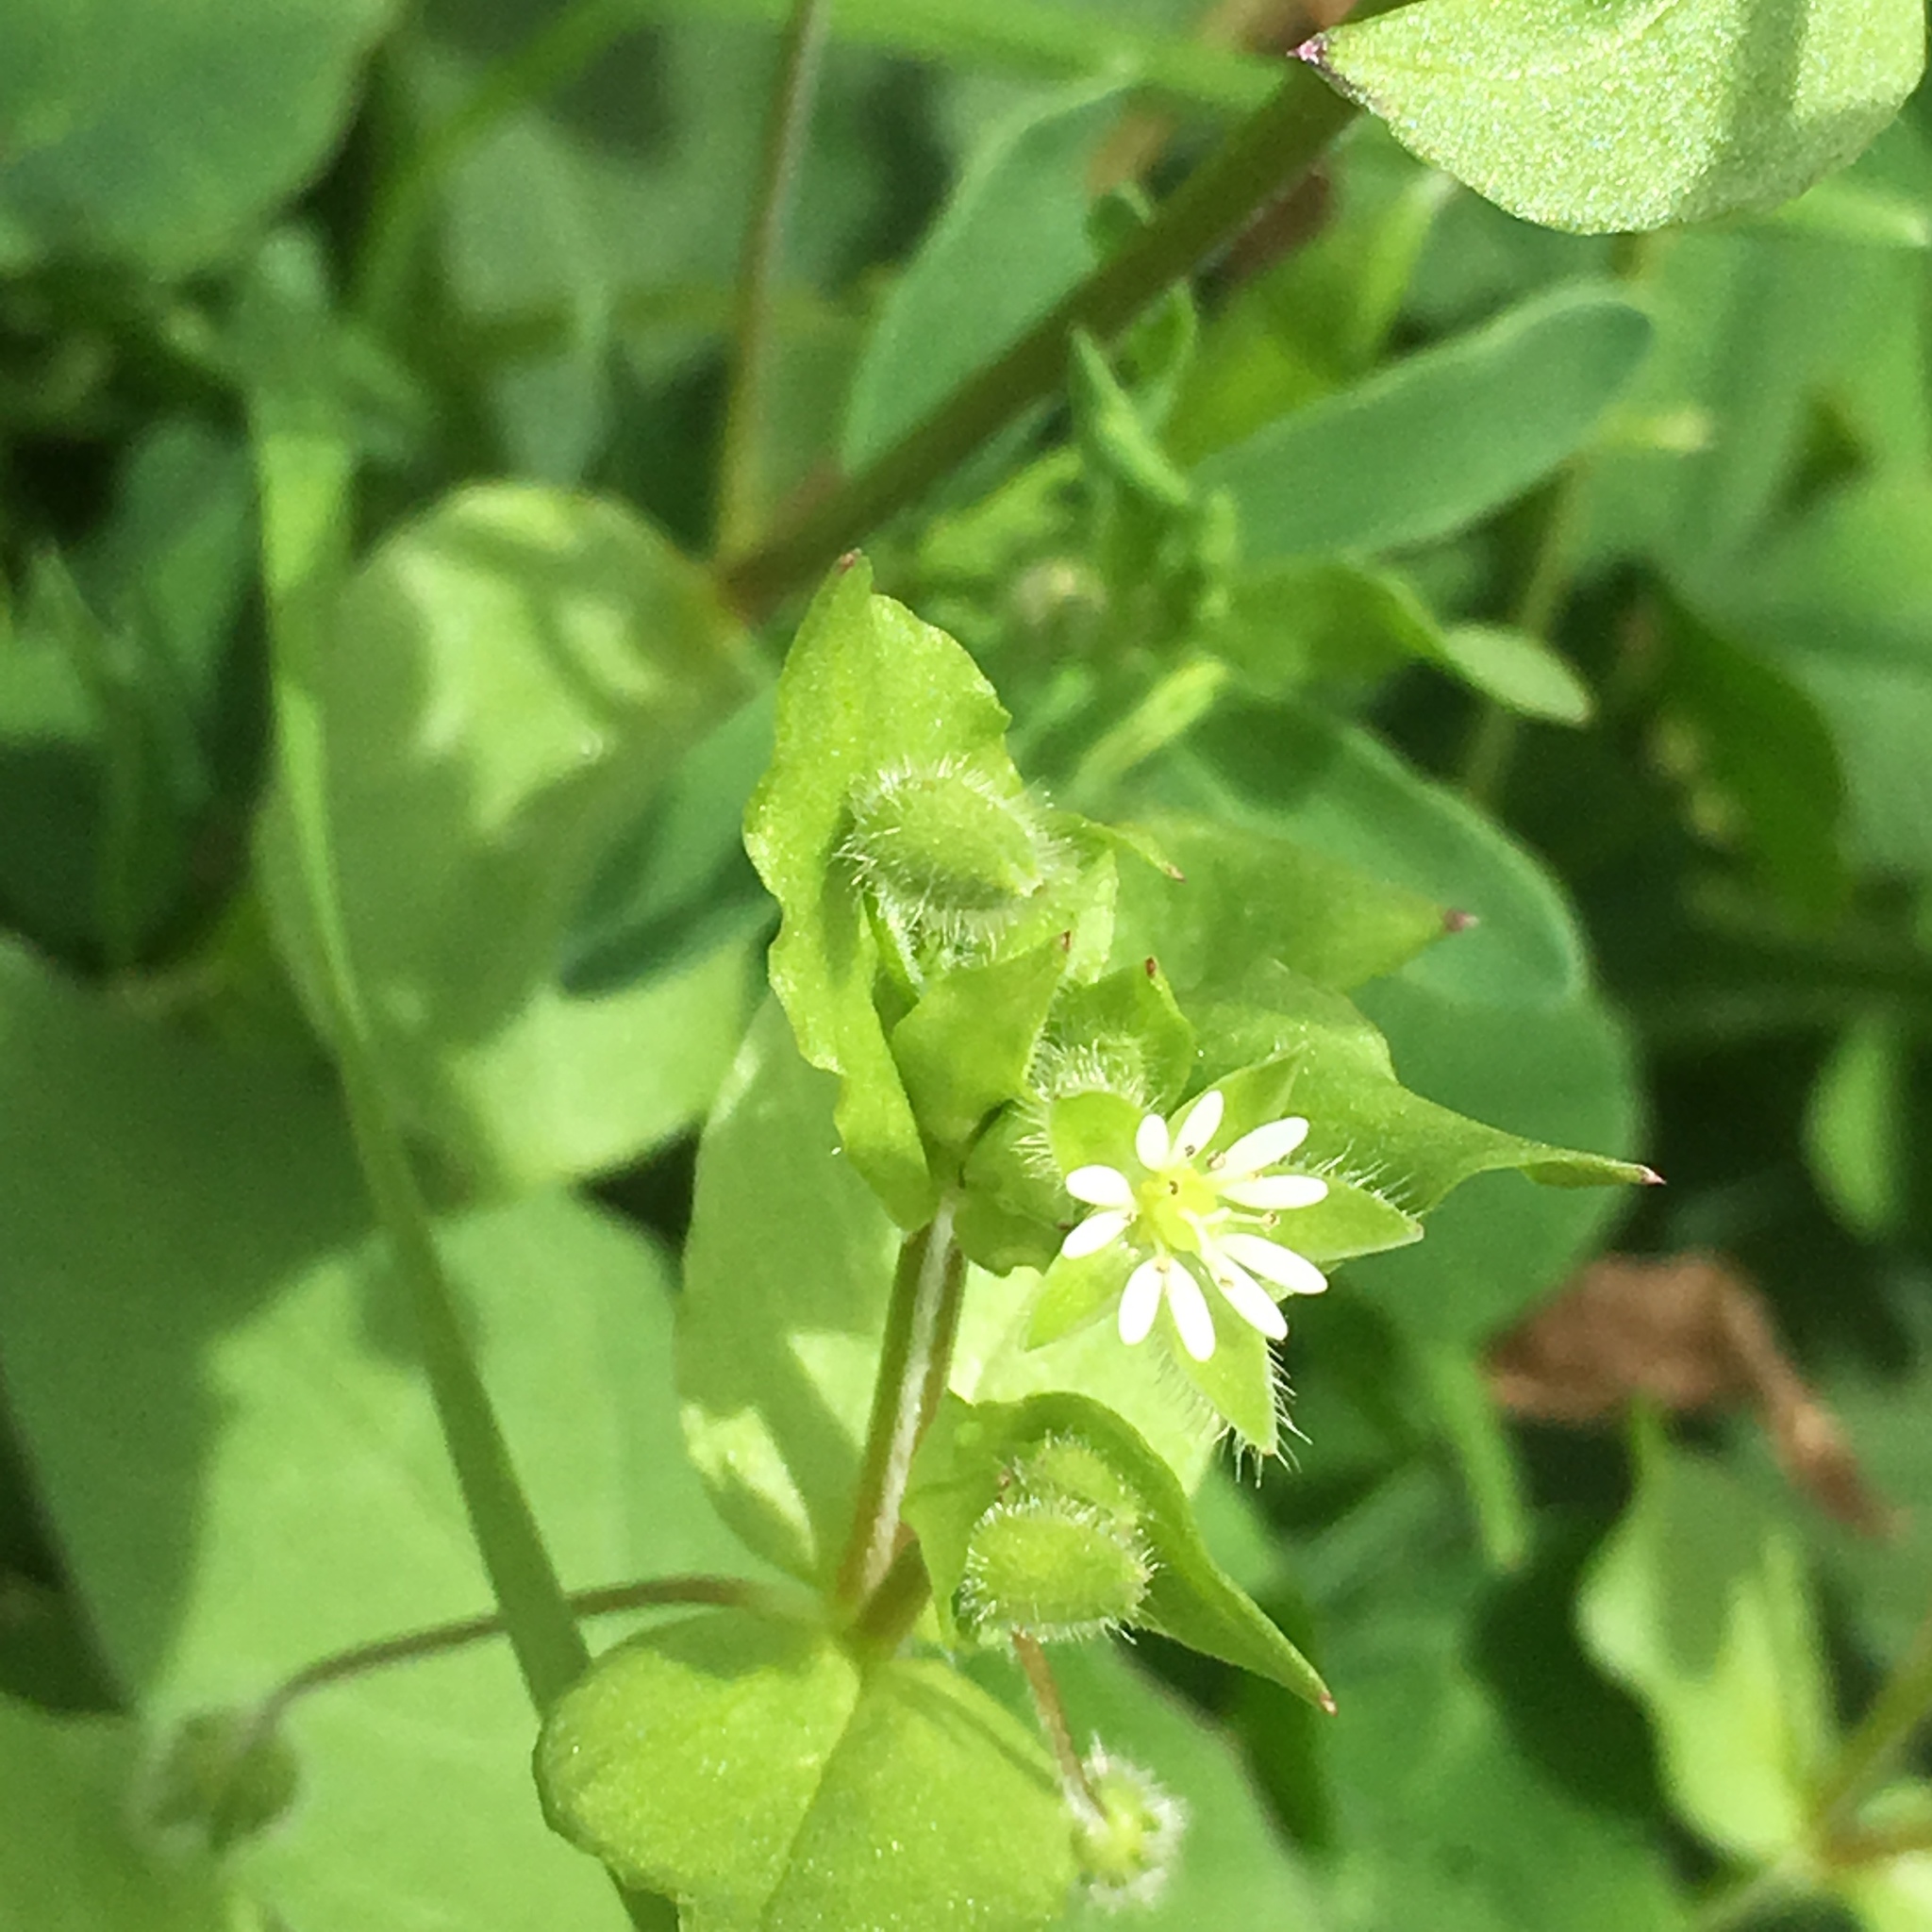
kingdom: Plantae
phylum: Tracheophyta
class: Magnoliopsida
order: Caryophyllales
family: Caryophyllaceae
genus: Stellaria
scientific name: Stellaria media
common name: Common chickweed
